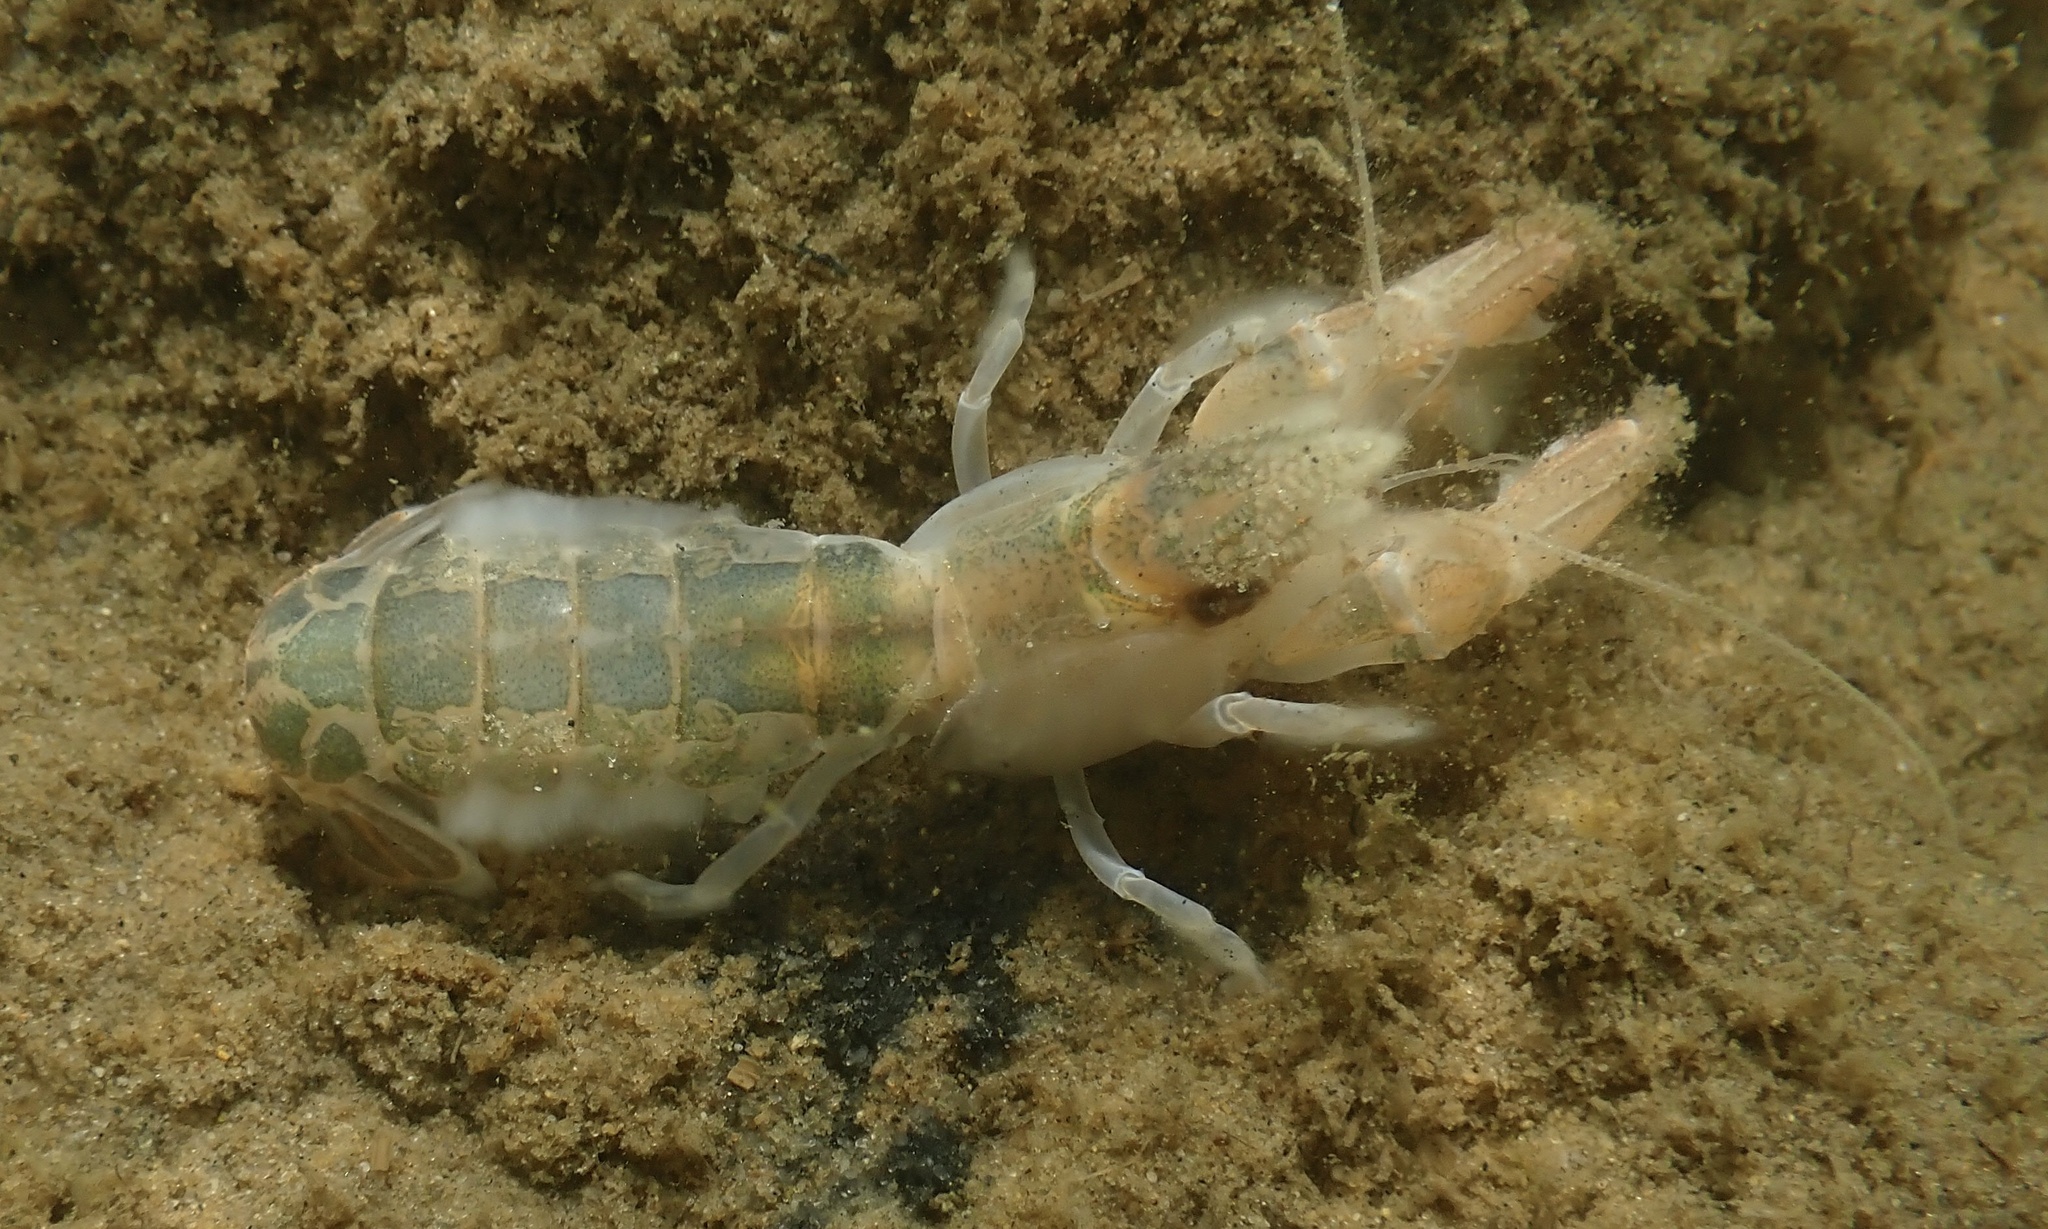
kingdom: Animalia
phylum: Arthropoda
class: Malacostraca
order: Decapoda
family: Upogebiidae
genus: Upogebia
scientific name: Upogebia affinis
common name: Coastal mud shrimp
